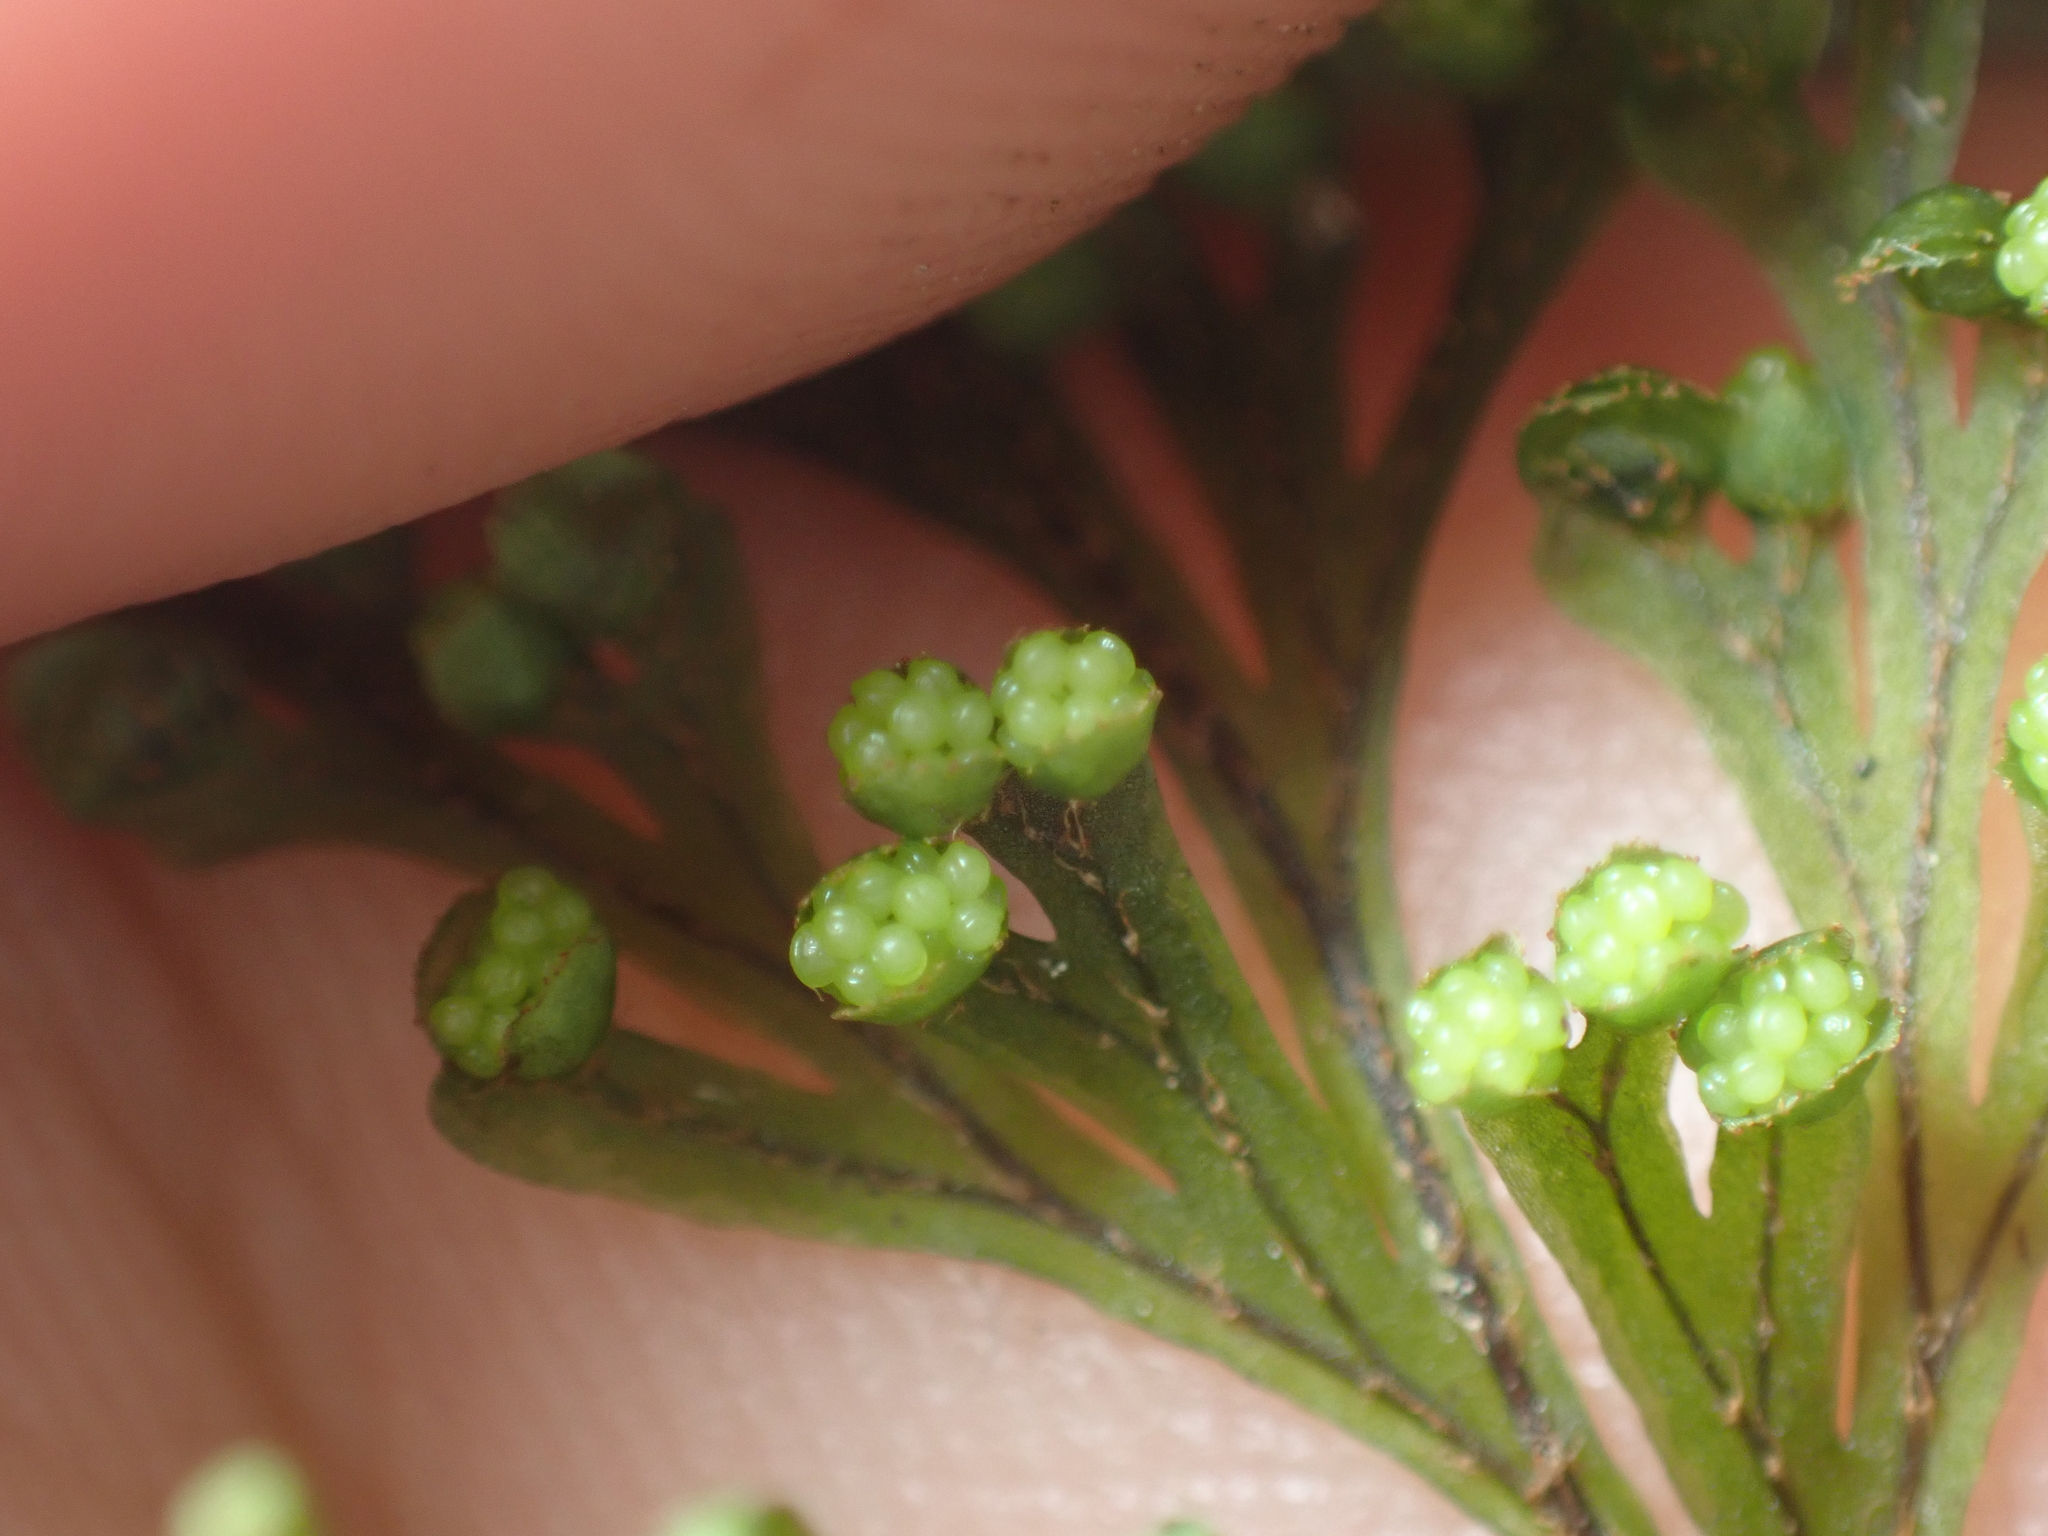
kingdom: Plantae
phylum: Tracheophyta
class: Polypodiopsida
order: Hymenophyllales
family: Hymenophyllaceae
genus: Hymenophyllum
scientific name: Hymenophyllum scabrum
